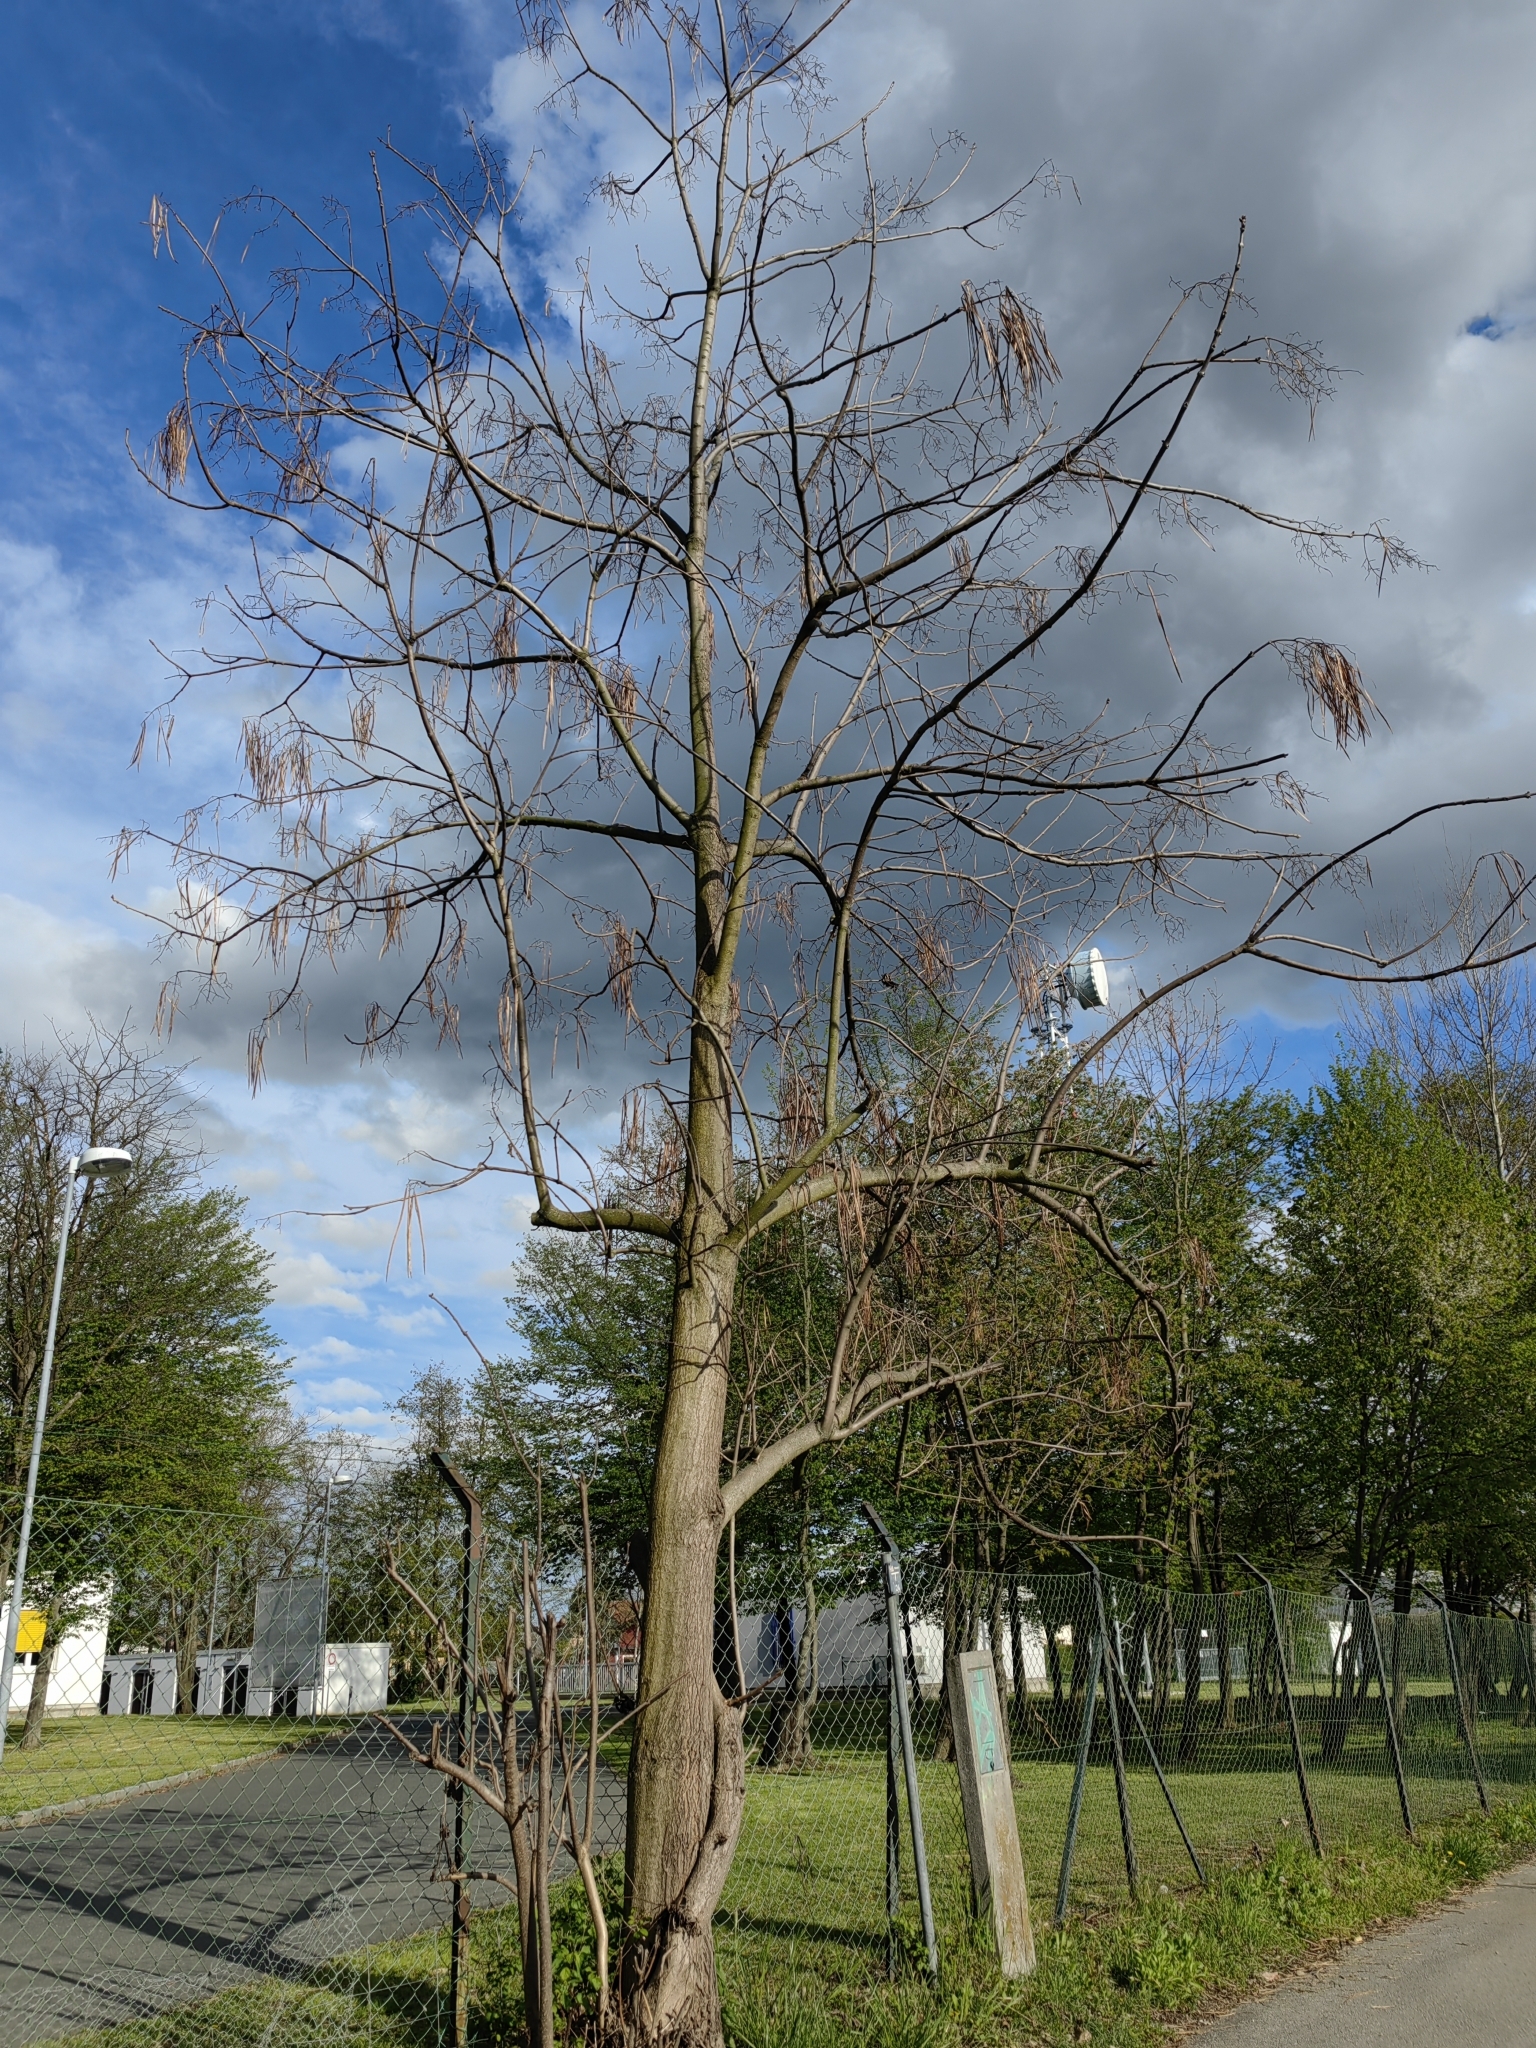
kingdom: Plantae
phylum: Tracheophyta
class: Magnoliopsida
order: Lamiales
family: Paulowniaceae
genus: Paulownia
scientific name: Paulownia tomentosa
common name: Foxglove-tree
